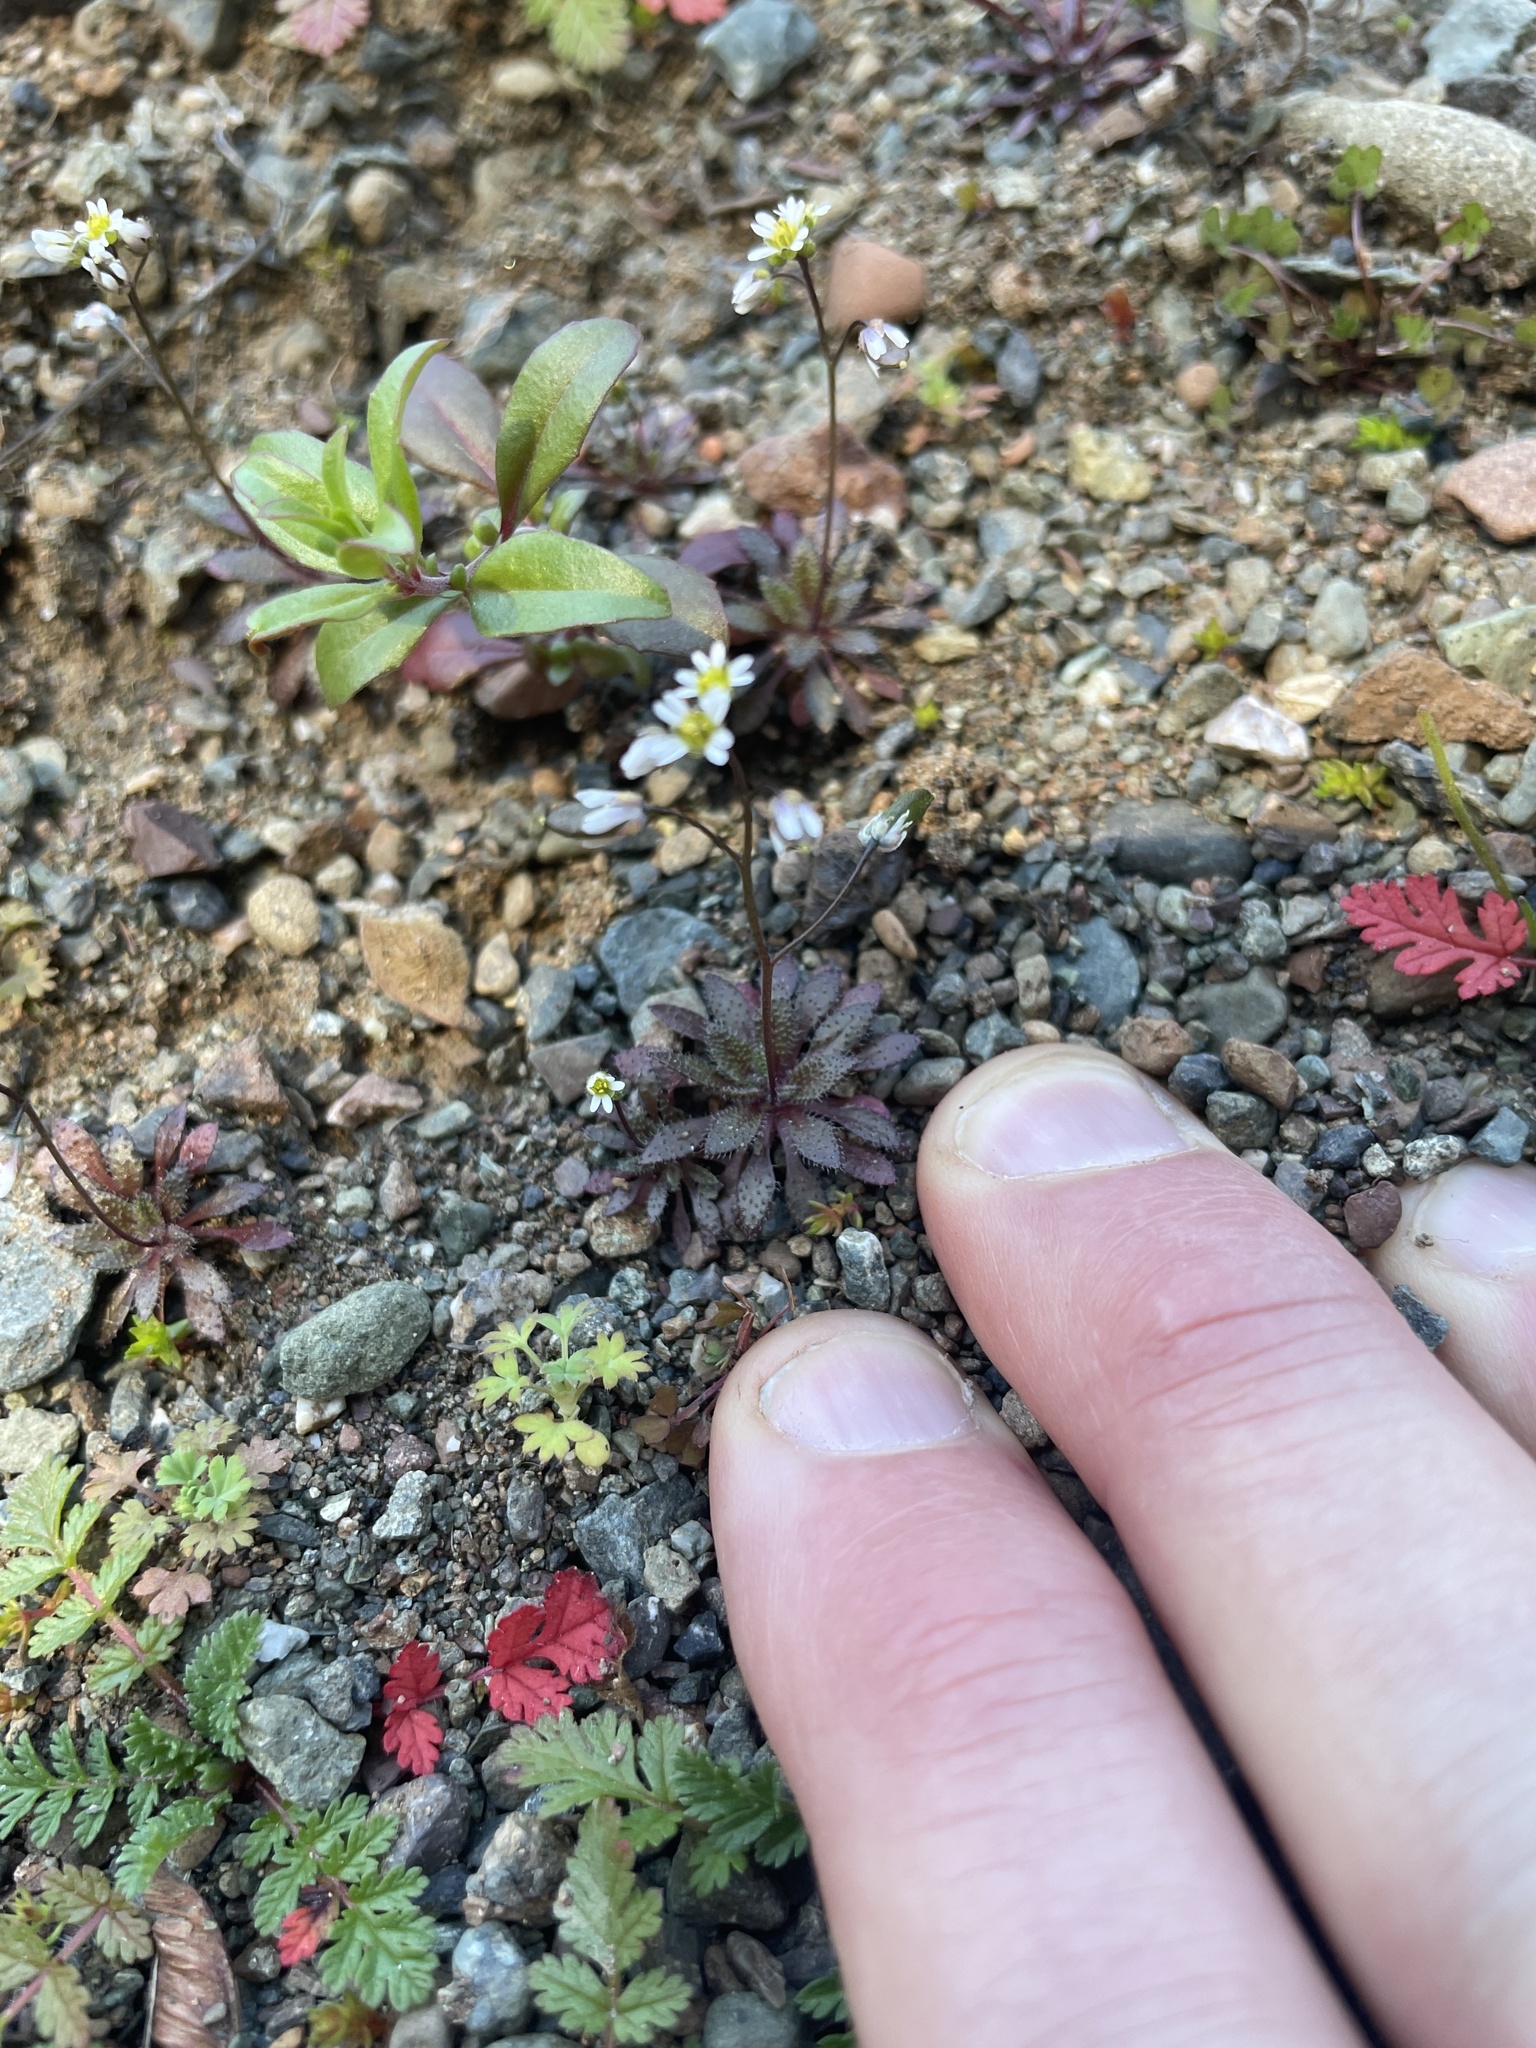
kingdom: Plantae
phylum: Tracheophyta
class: Magnoliopsida
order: Brassicales
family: Brassicaceae
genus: Draba
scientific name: Draba verna
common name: Spring draba
